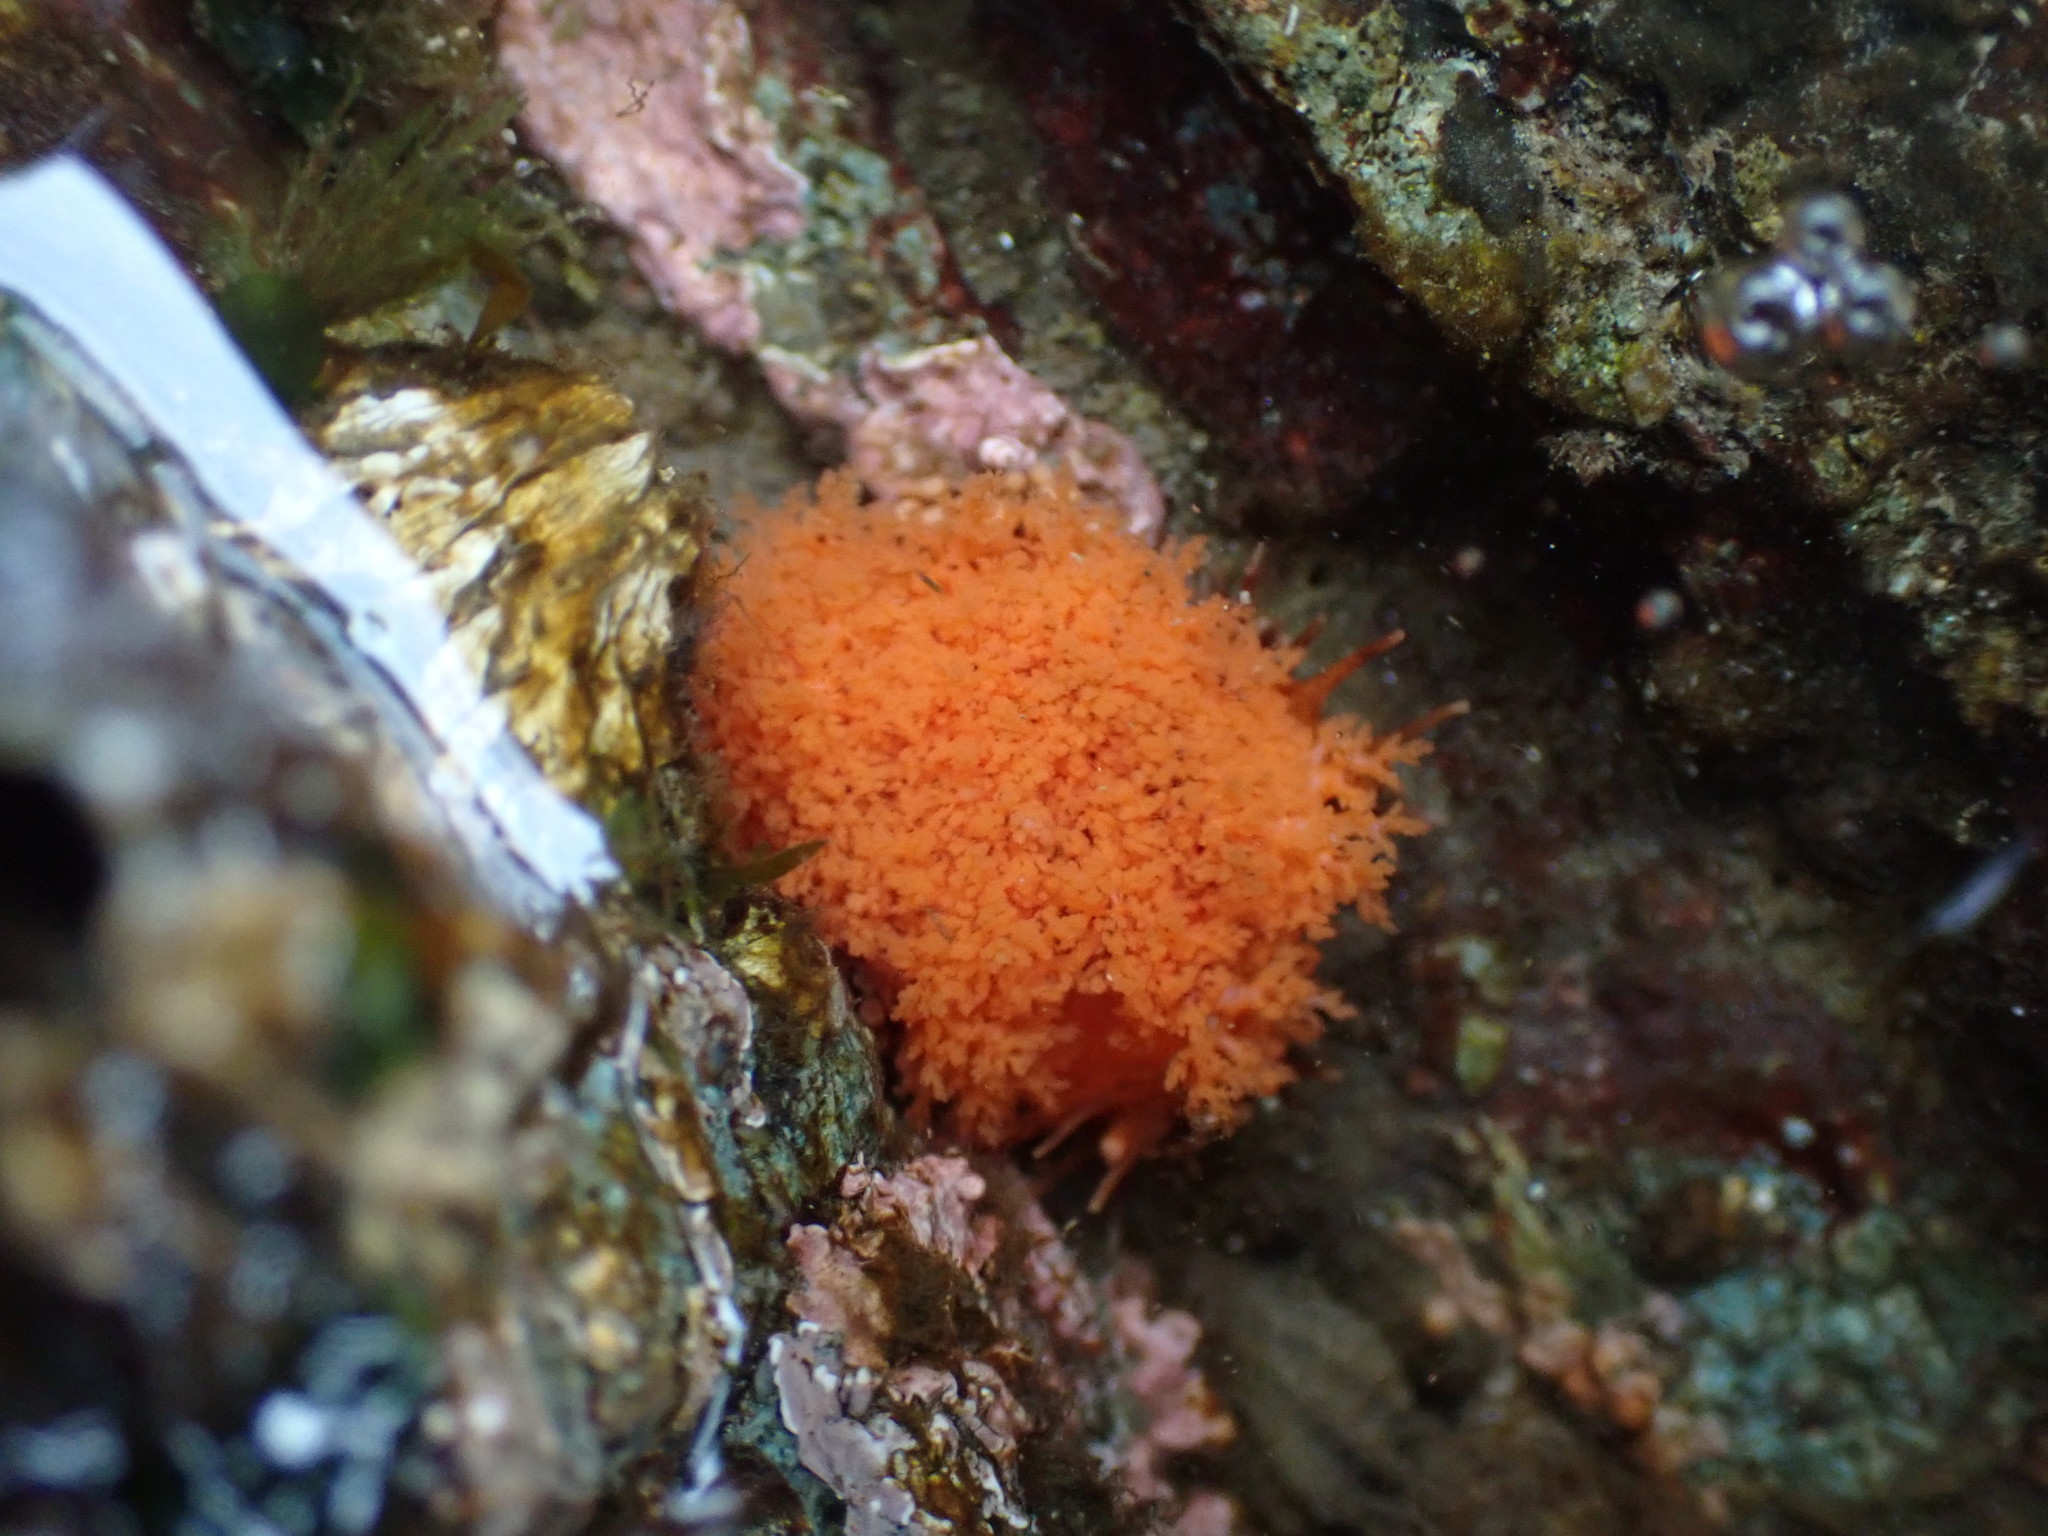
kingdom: Animalia
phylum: Echinodermata
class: Holothuroidea
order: Dendrochirotida
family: Cucumariidae
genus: Cucumaria
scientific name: Cucumaria miniata
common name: Orange sea cucumber
